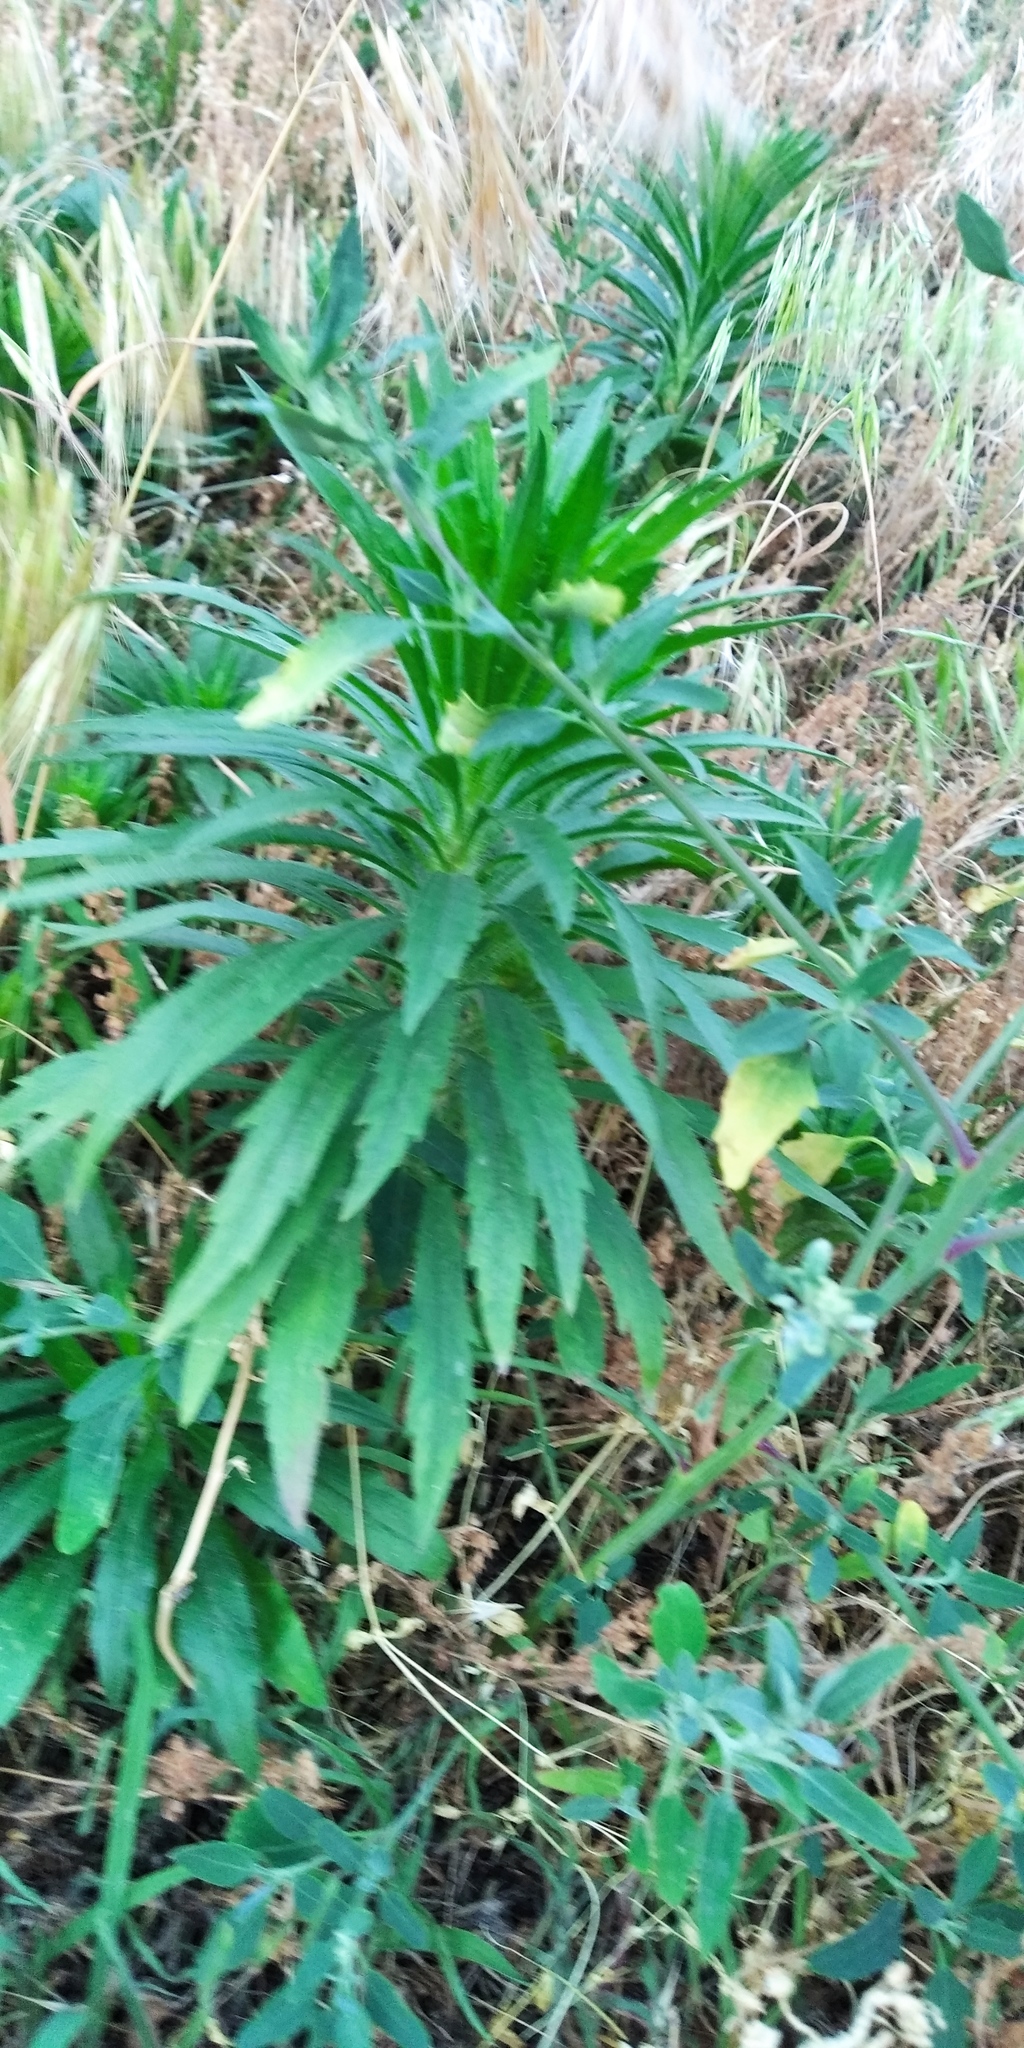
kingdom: Plantae
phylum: Tracheophyta
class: Magnoliopsida
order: Asterales
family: Asteraceae
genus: Erigeron
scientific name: Erigeron canadensis
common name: Canadian fleabane
